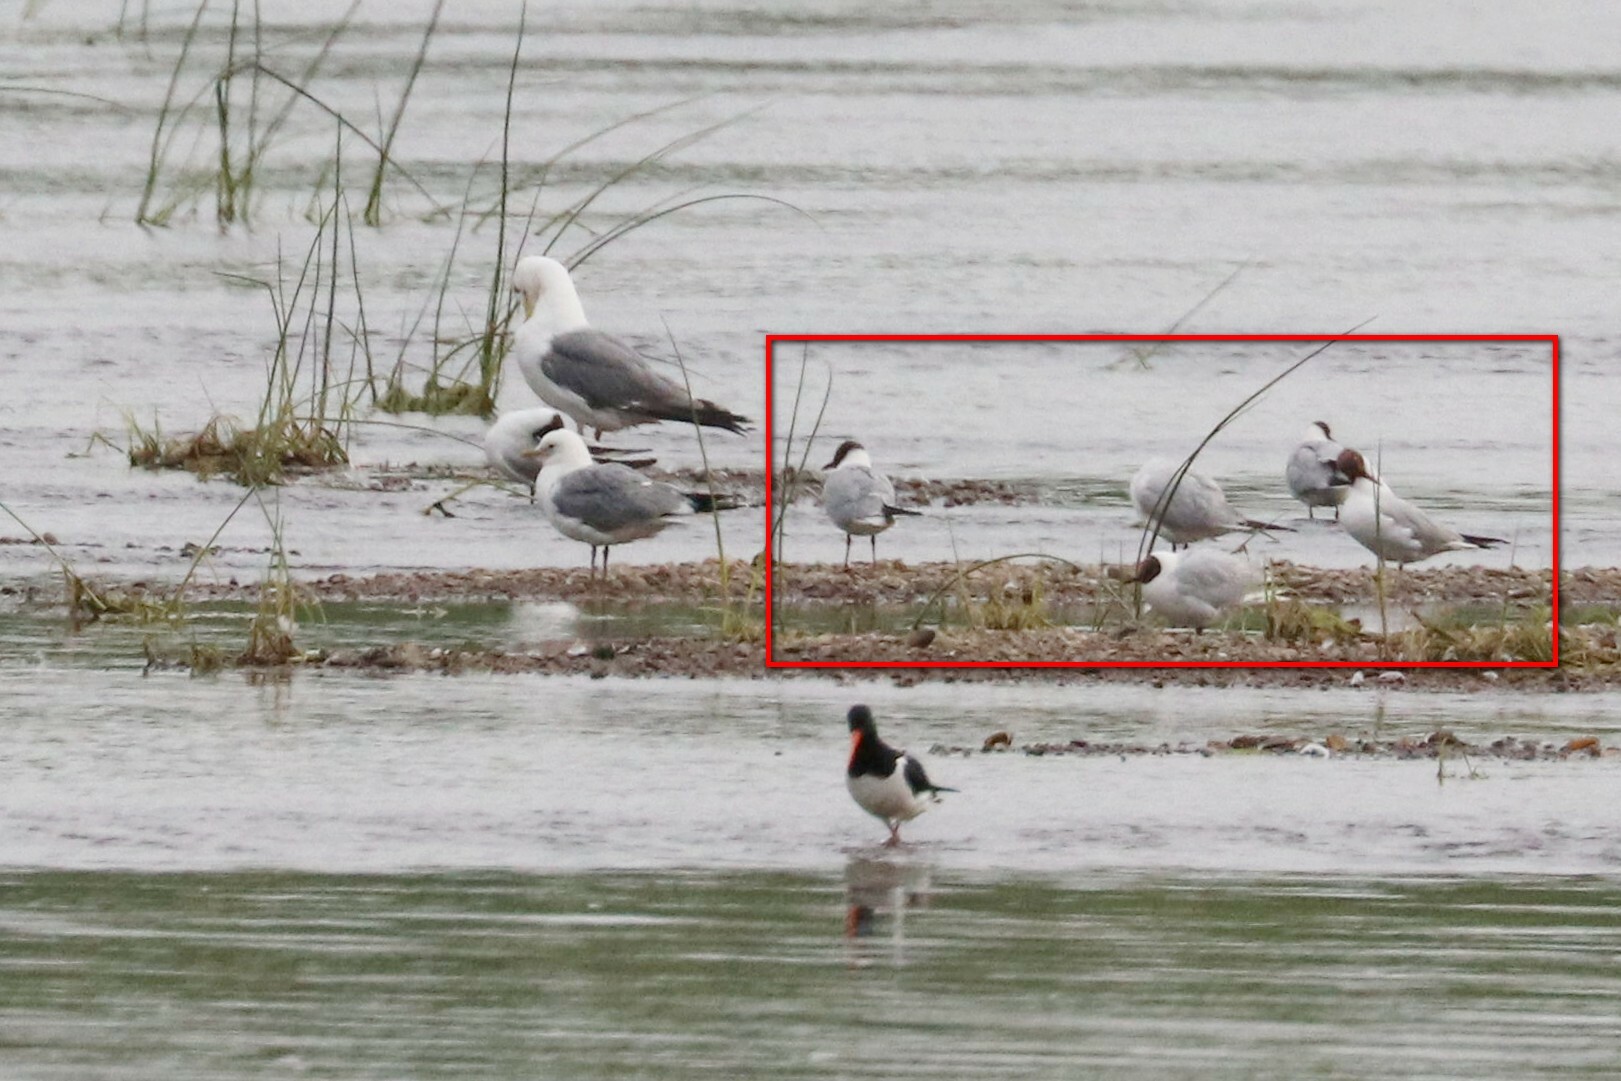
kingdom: Animalia
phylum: Chordata
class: Aves
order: Charadriiformes
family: Laridae
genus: Chroicocephalus
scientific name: Chroicocephalus ridibundus
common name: Black-headed gull
